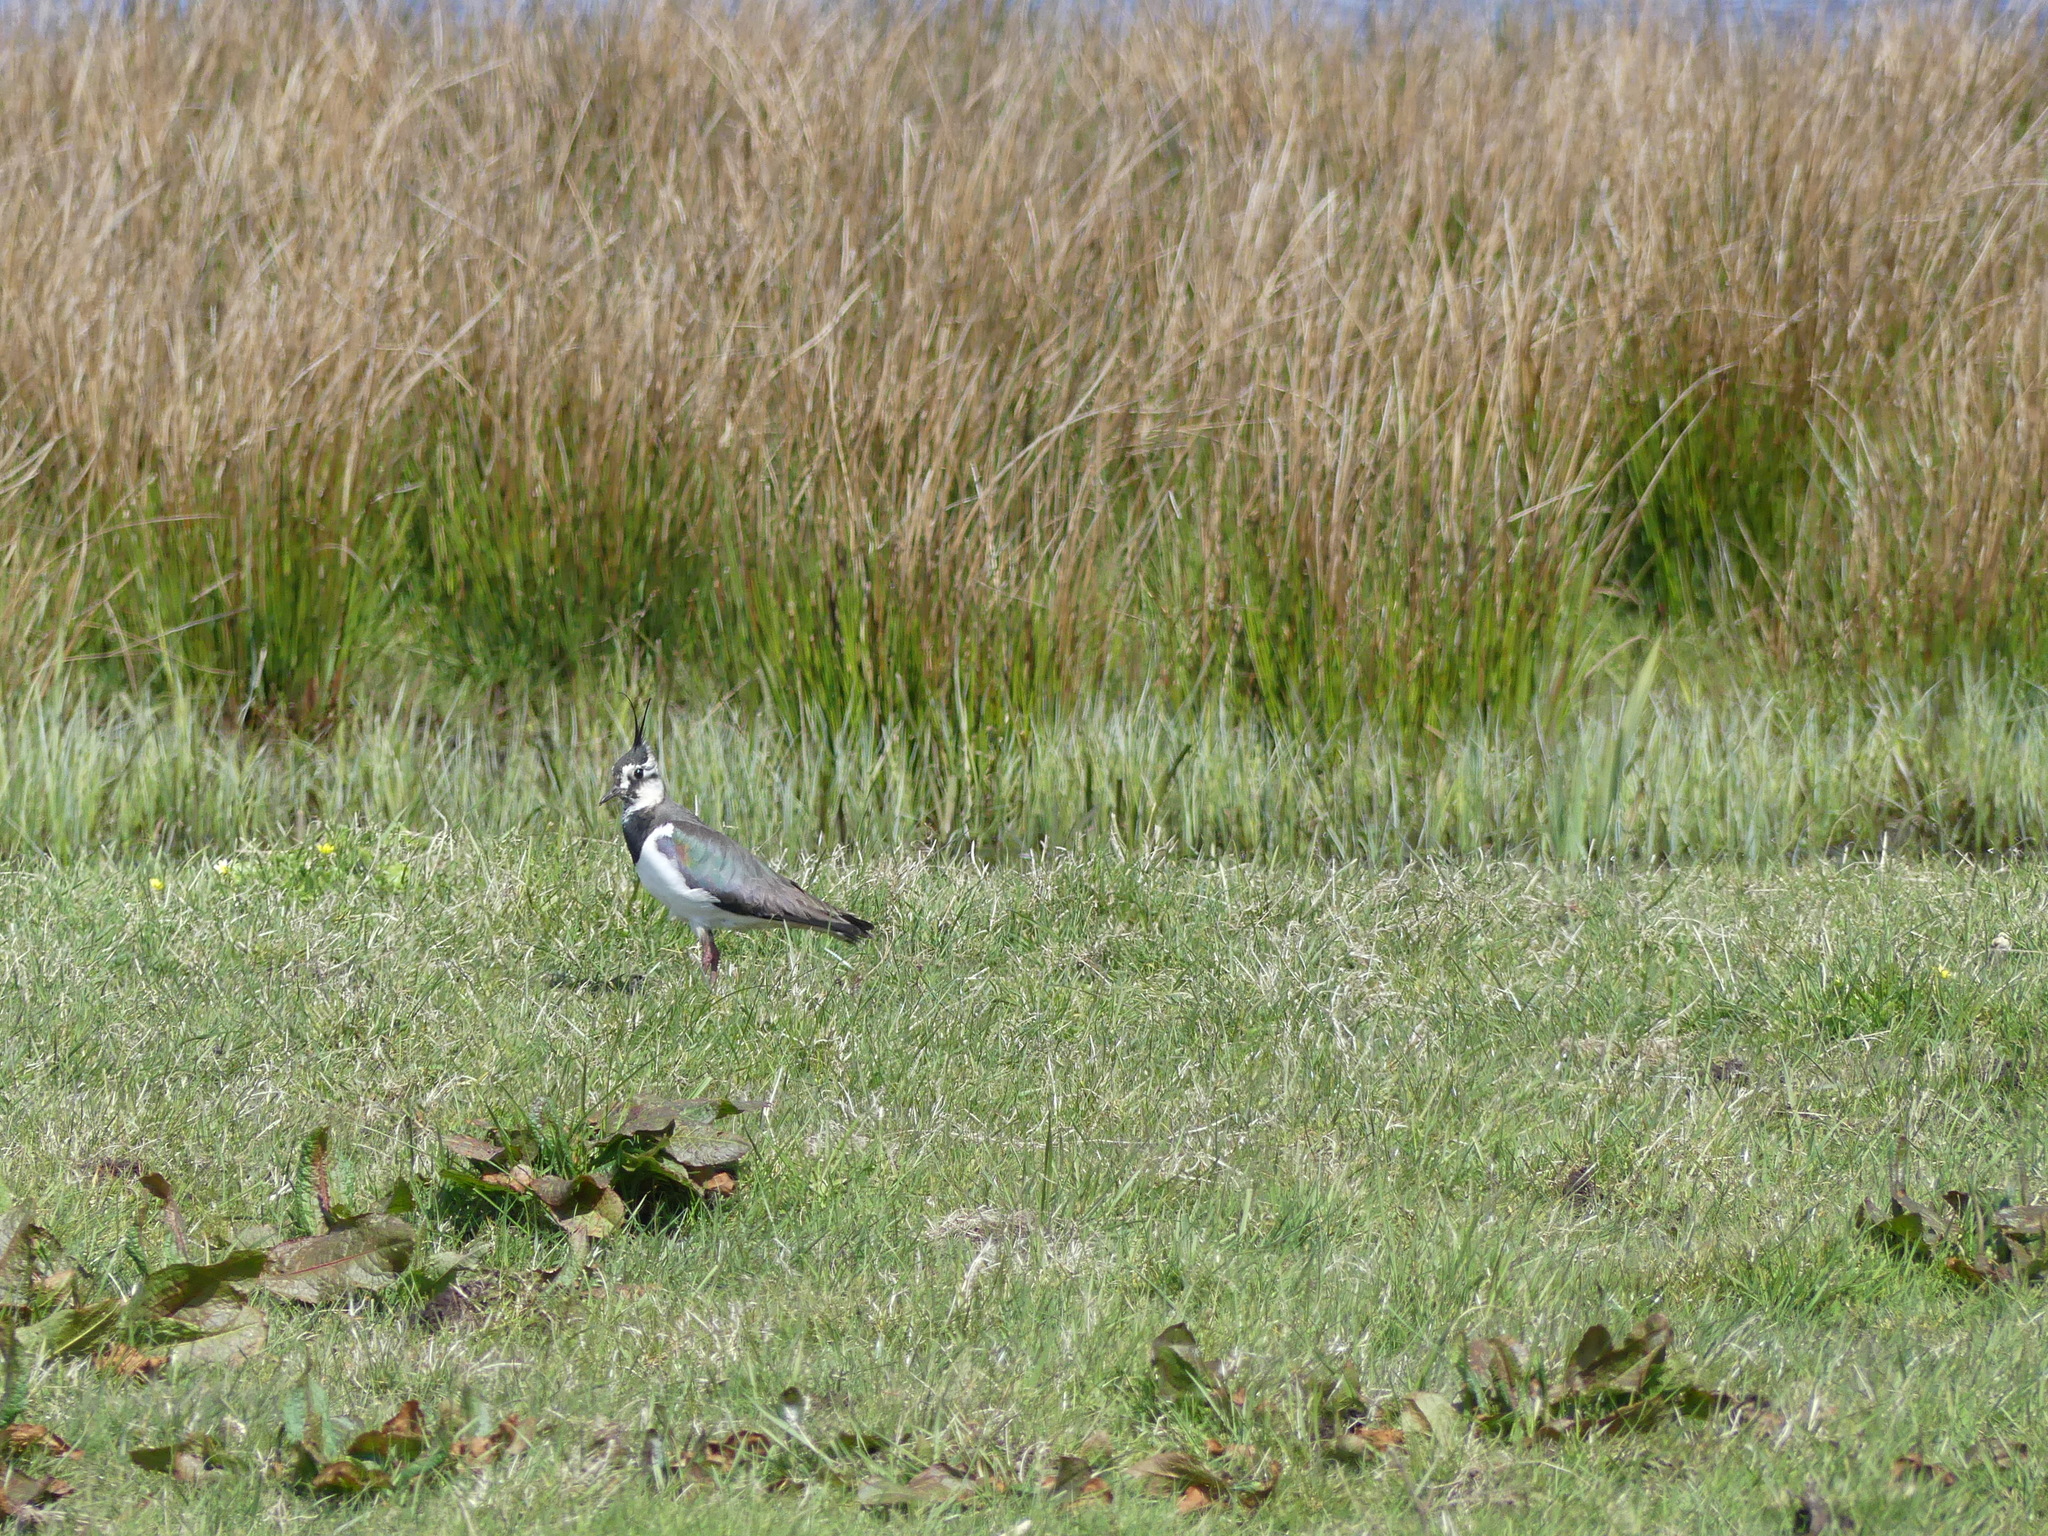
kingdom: Animalia
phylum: Chordata
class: Aves
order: Charadriiformes
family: Charadriidae
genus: Vanellus
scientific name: Vanellus vanellus
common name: Northern lapwing
